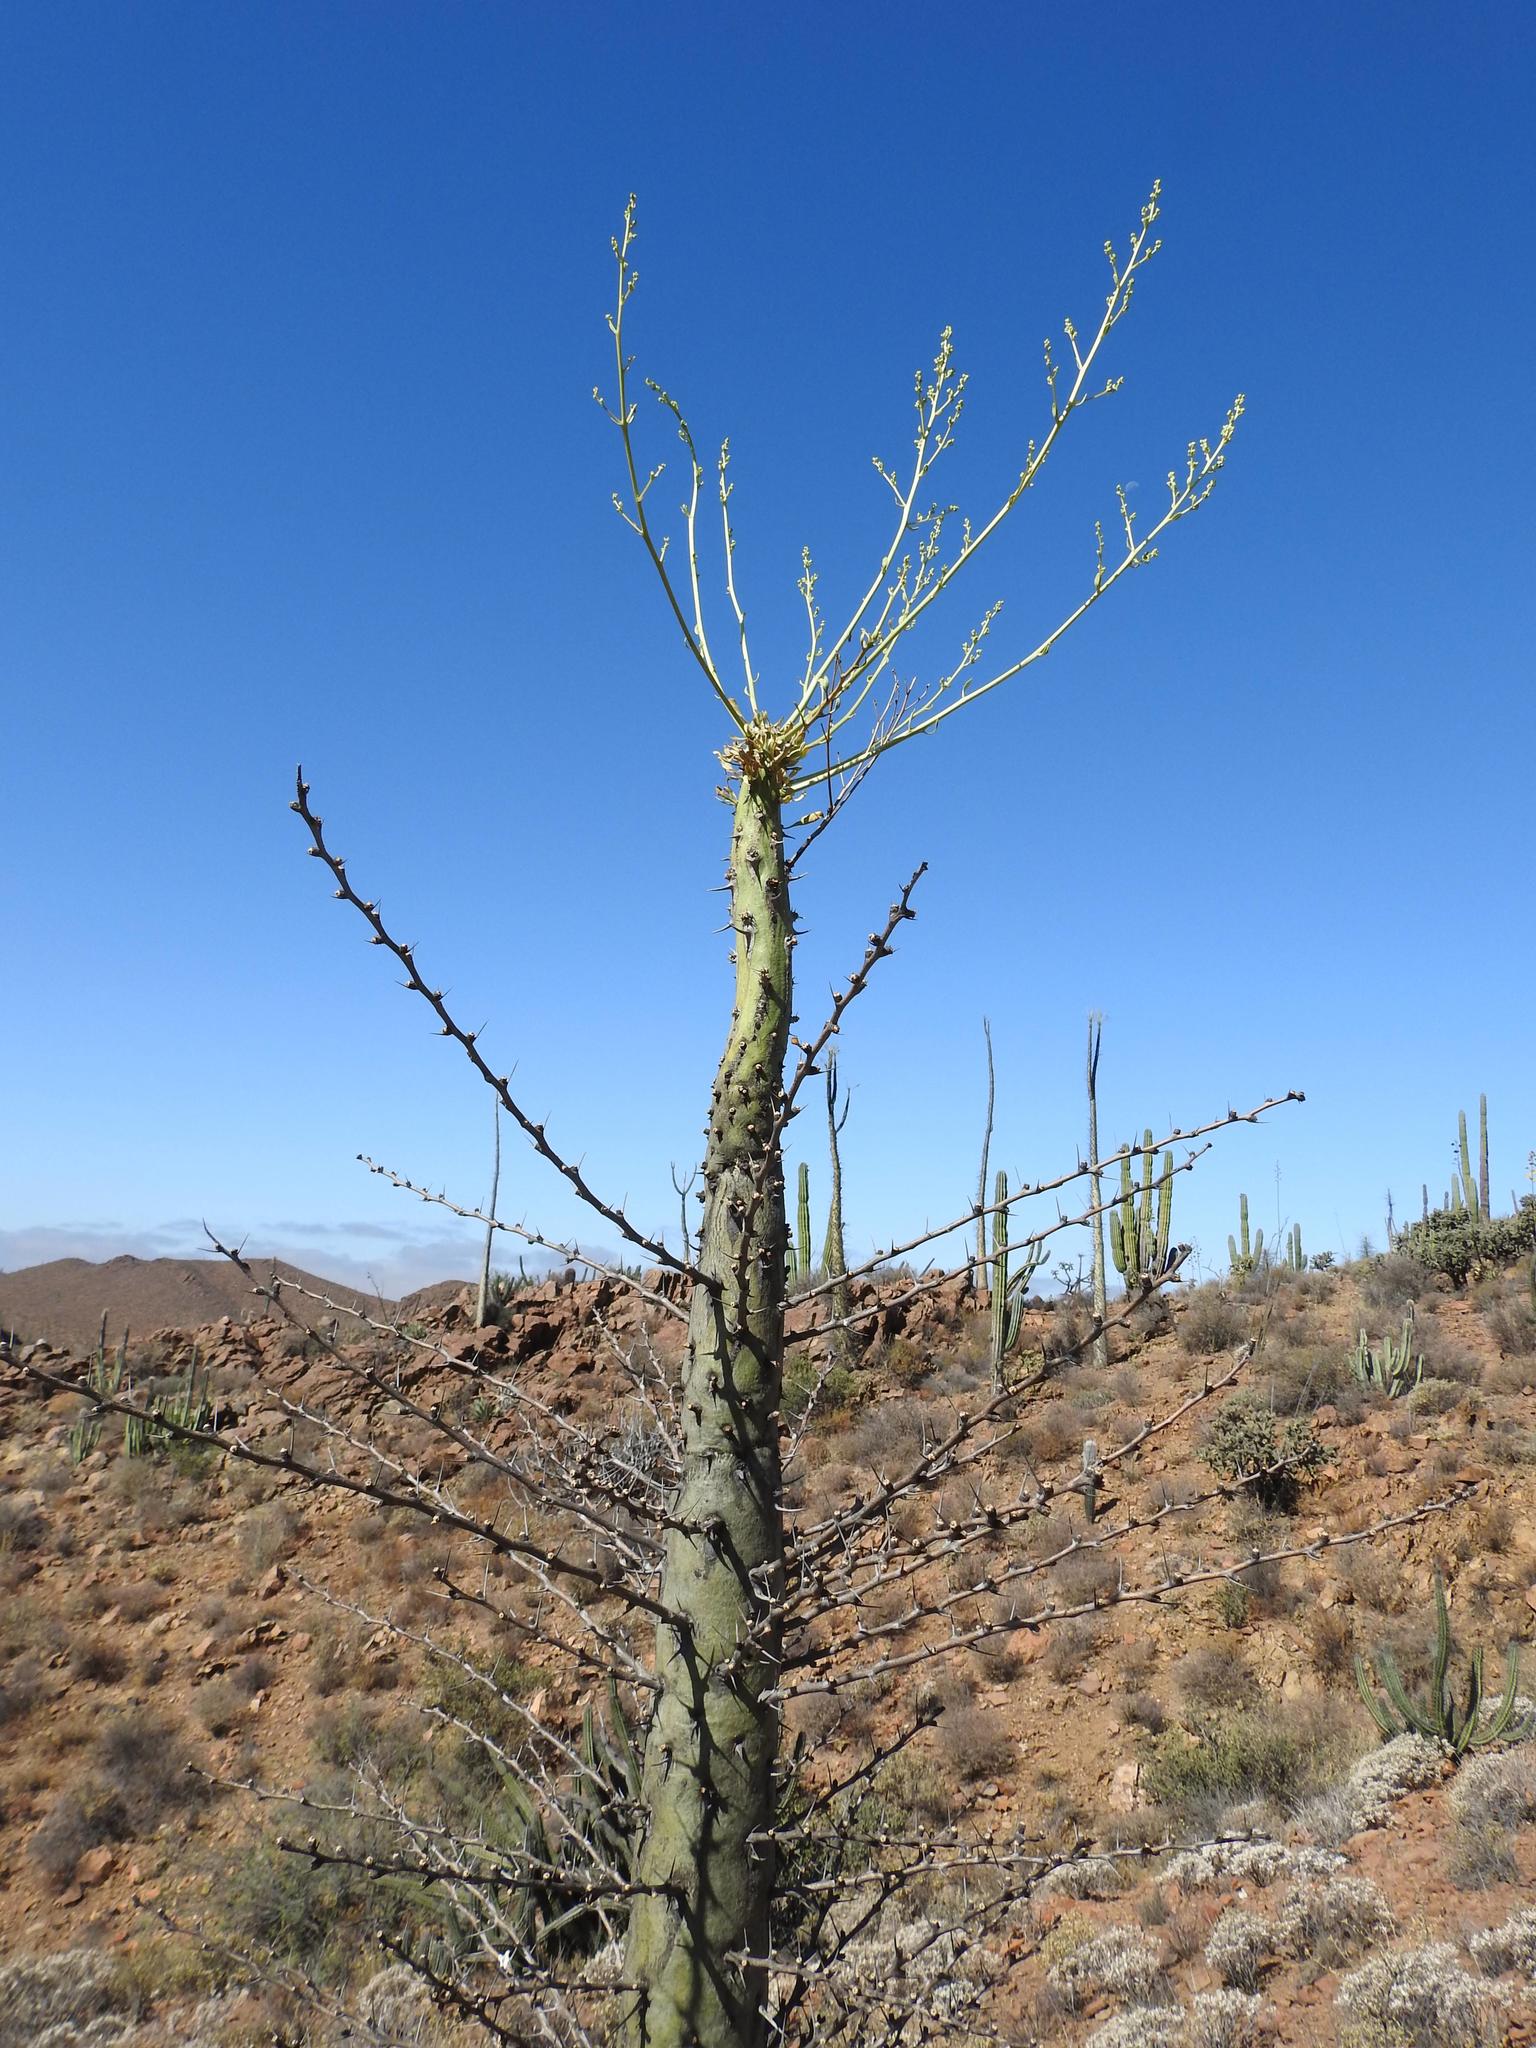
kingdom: Plantae
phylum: Tracheophyta
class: Magnoliopsida
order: Ericales
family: Fouquieriaceae
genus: Fouquieria
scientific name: Fouquieria columnaris
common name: Boojumtree
